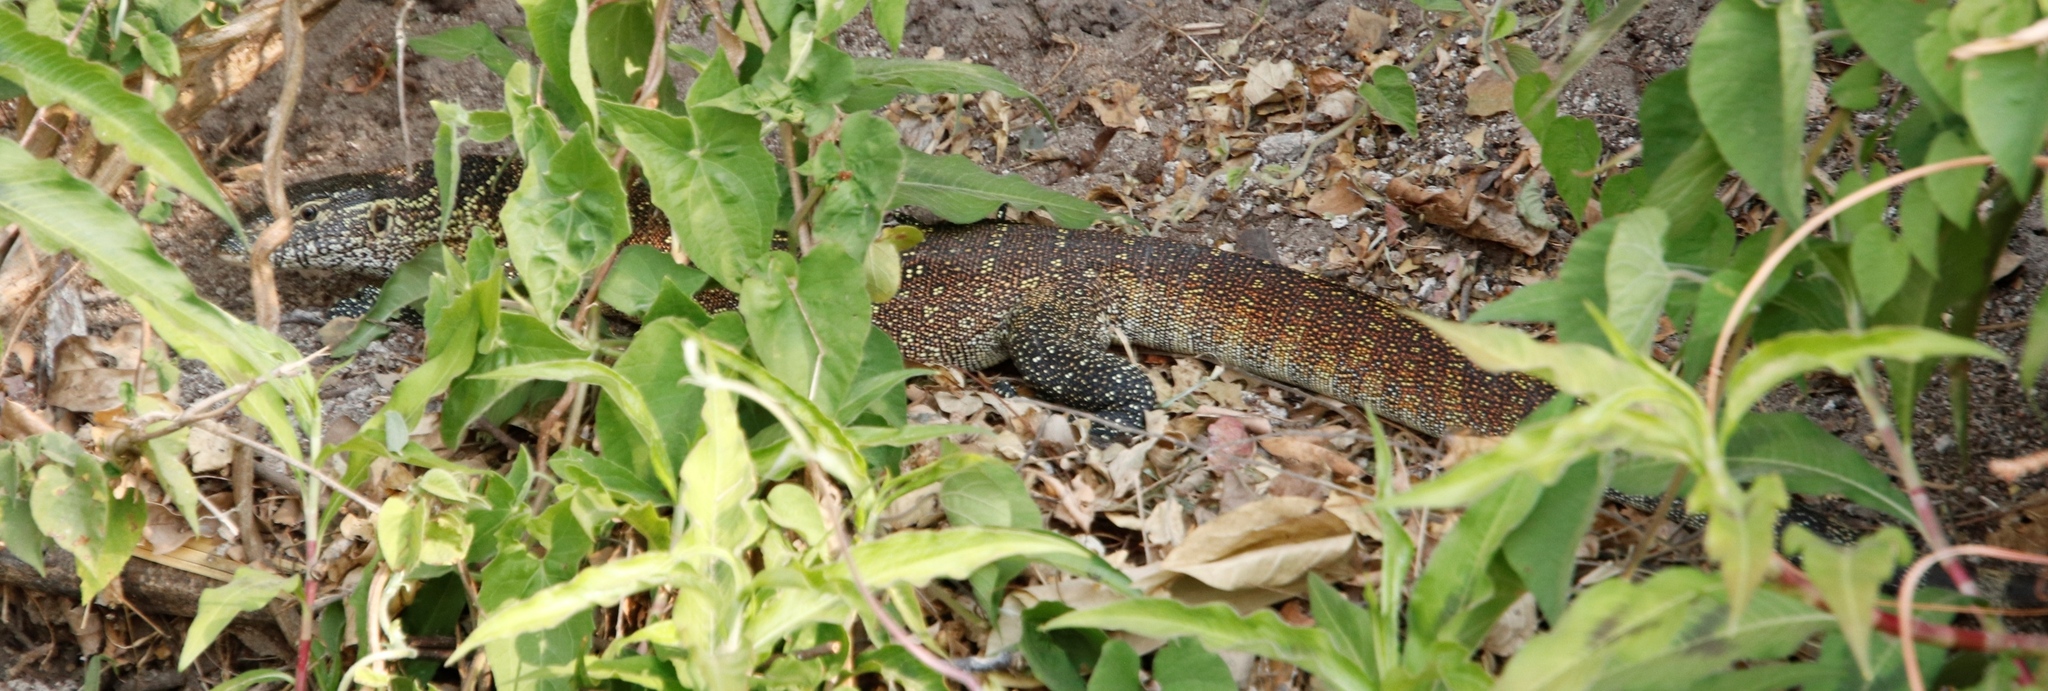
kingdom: Animalia
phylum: Chordata
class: Squamata
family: Varanidae
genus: Varanus
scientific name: Varanus niloticus
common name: Nile monitor
